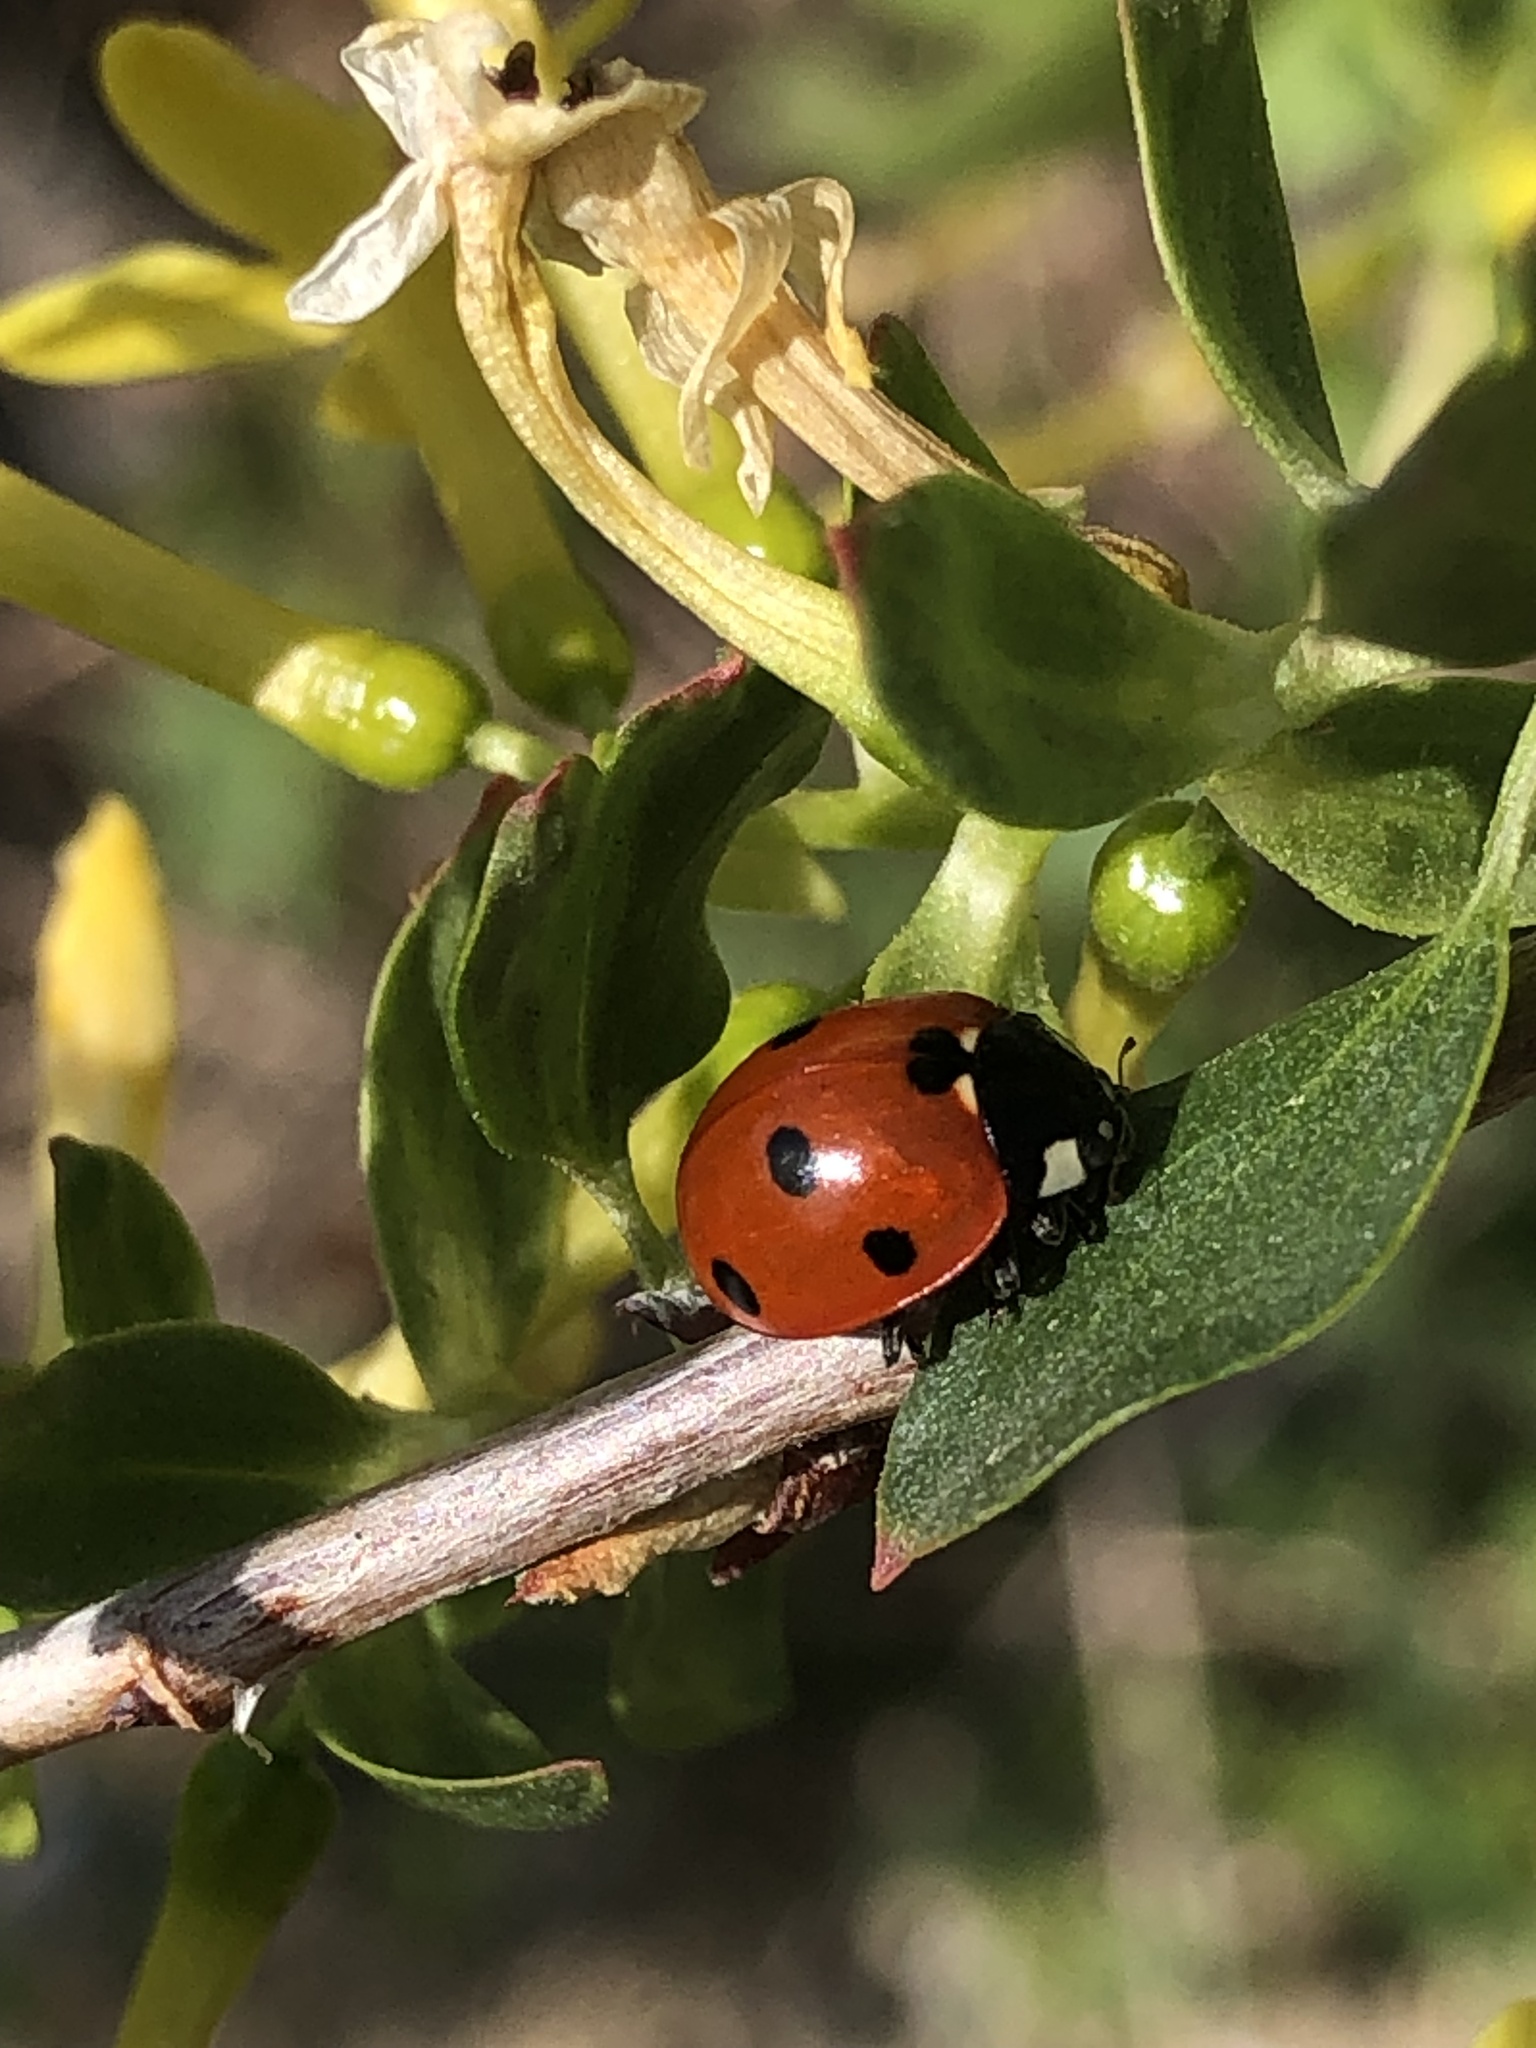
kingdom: Animalia
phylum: Arthropoda
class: Insecta
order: Coleoptera
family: Coccinellidae
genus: Coccinella
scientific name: Coccinella septempunctata
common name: Sevenspotted lady beetle
